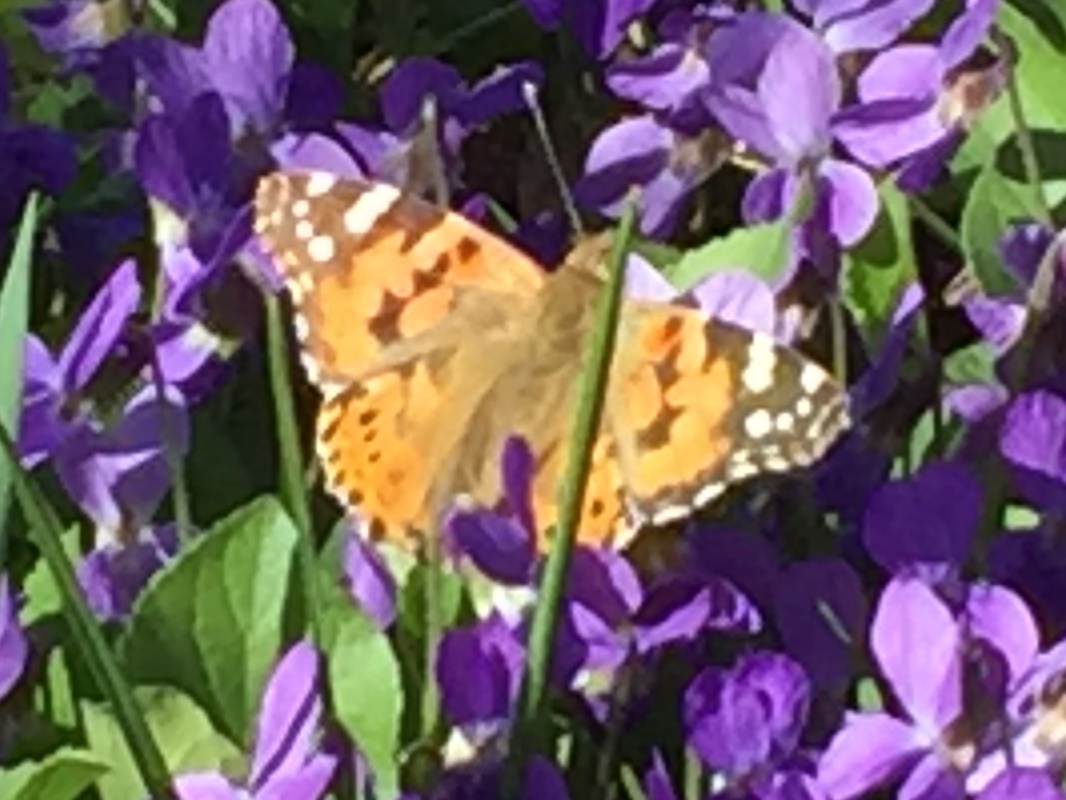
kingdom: Animalia
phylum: Arthropoda
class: Insecta
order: Lepidoptera
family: Nymphalidae
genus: Vanessa
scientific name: Vanessa cardui
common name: Painted lady
